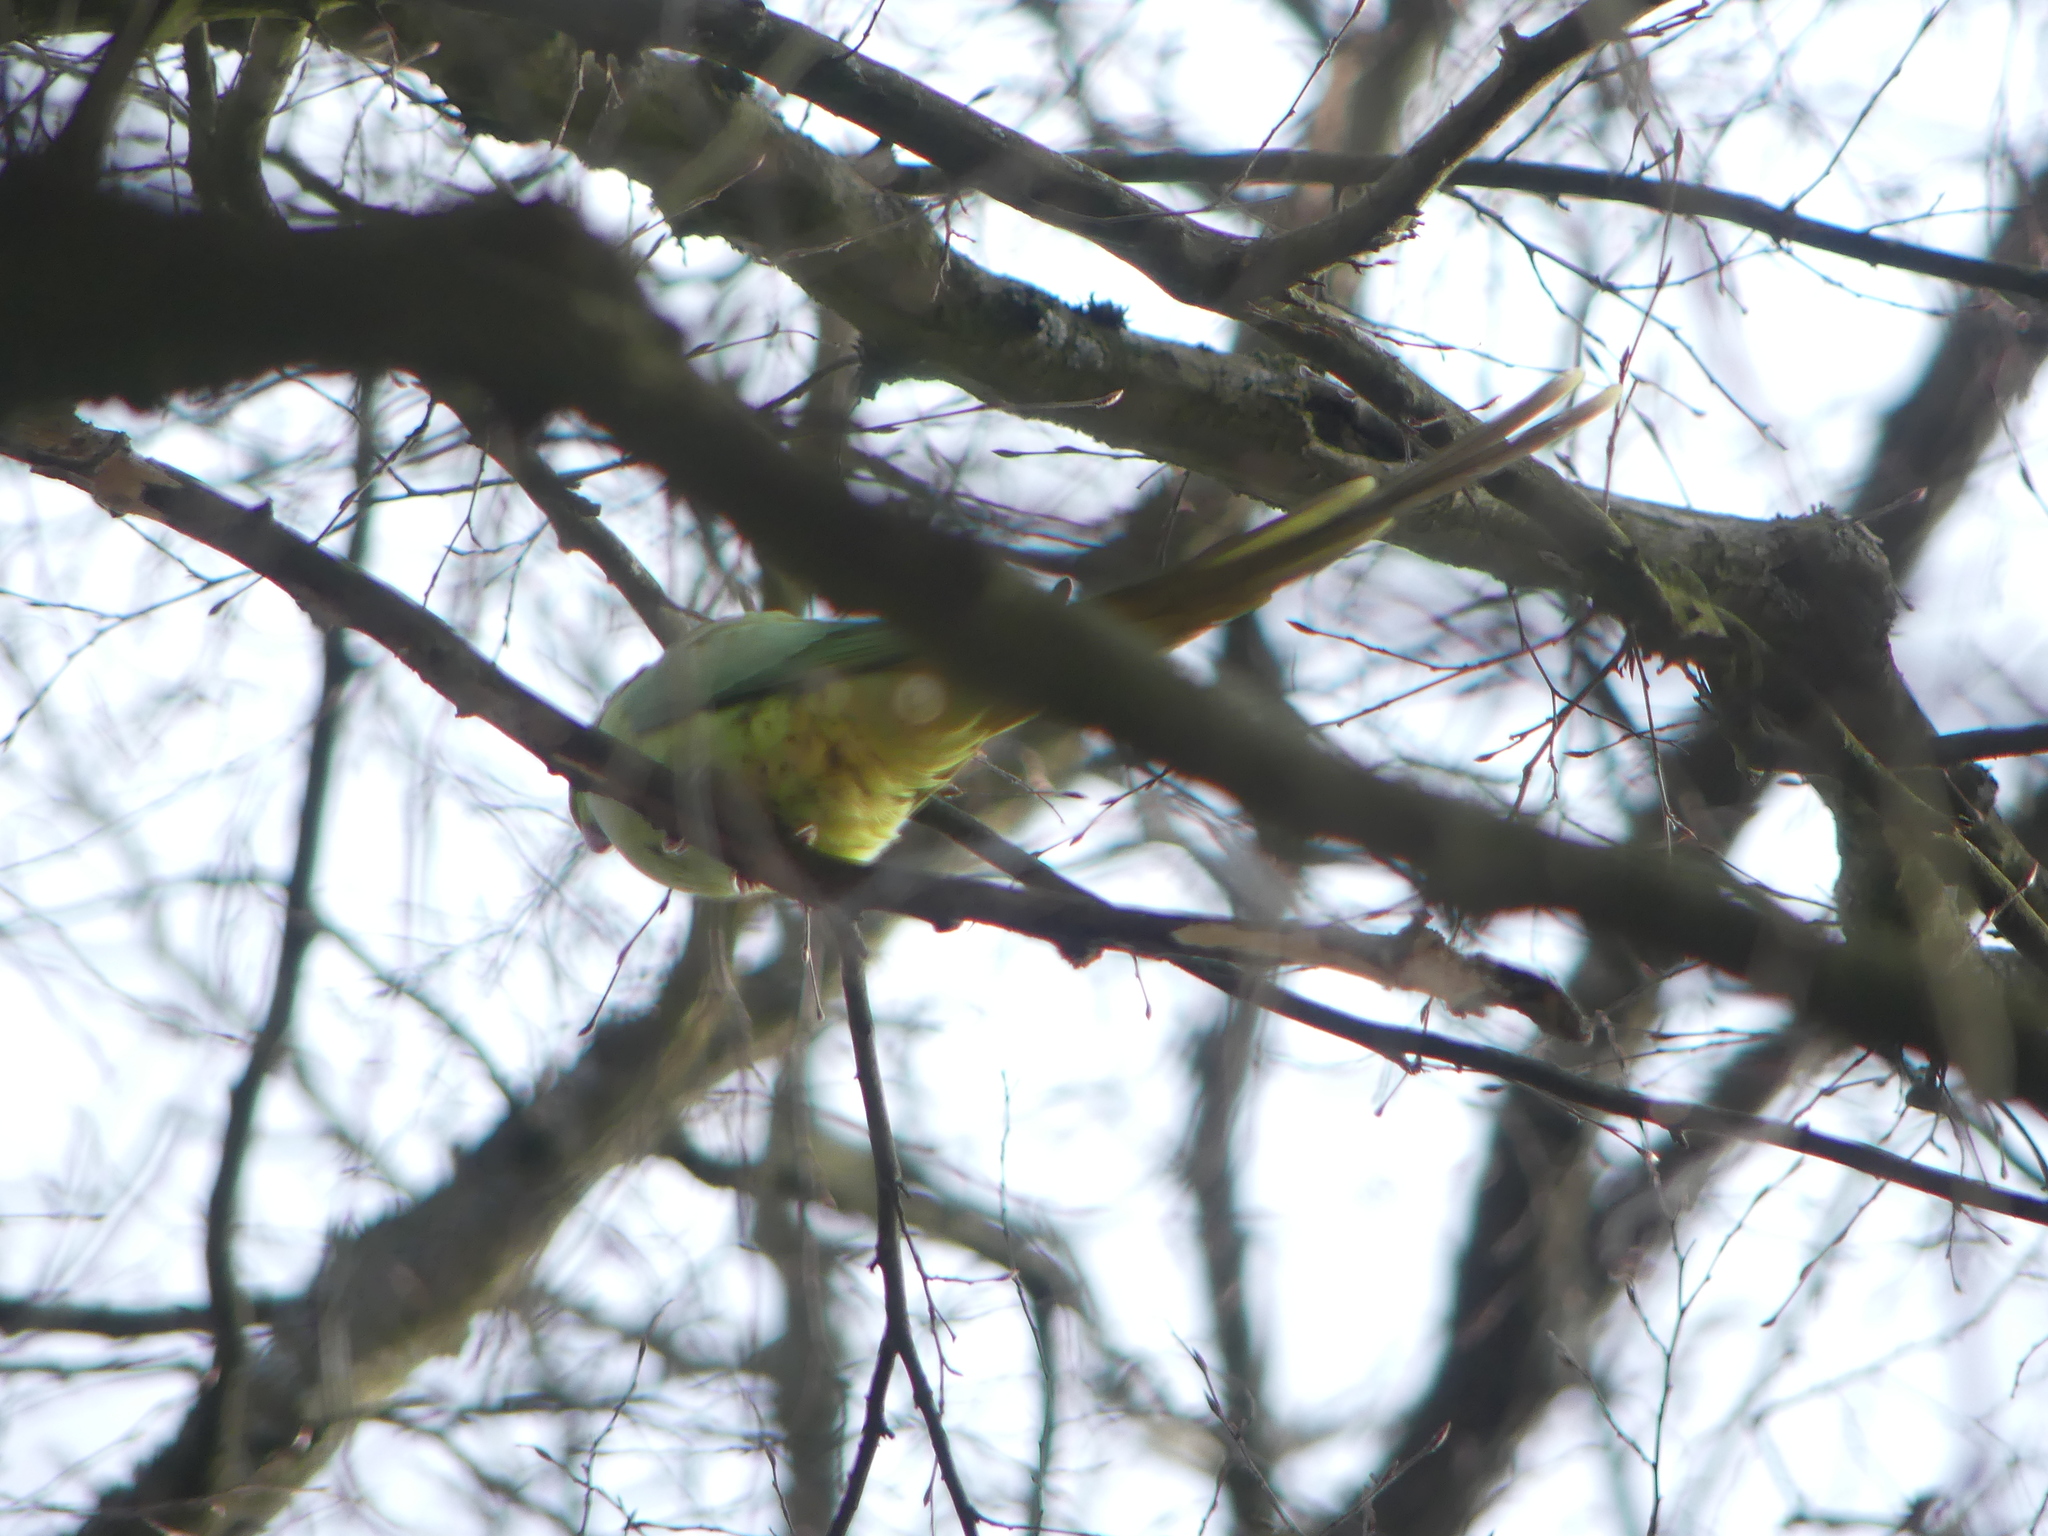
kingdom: Animalia
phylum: Chordata
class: Aves
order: Psittaciformes
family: Psittacidae
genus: Psittacula
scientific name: Psittacula krameri
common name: Rose-ringed parakeet
